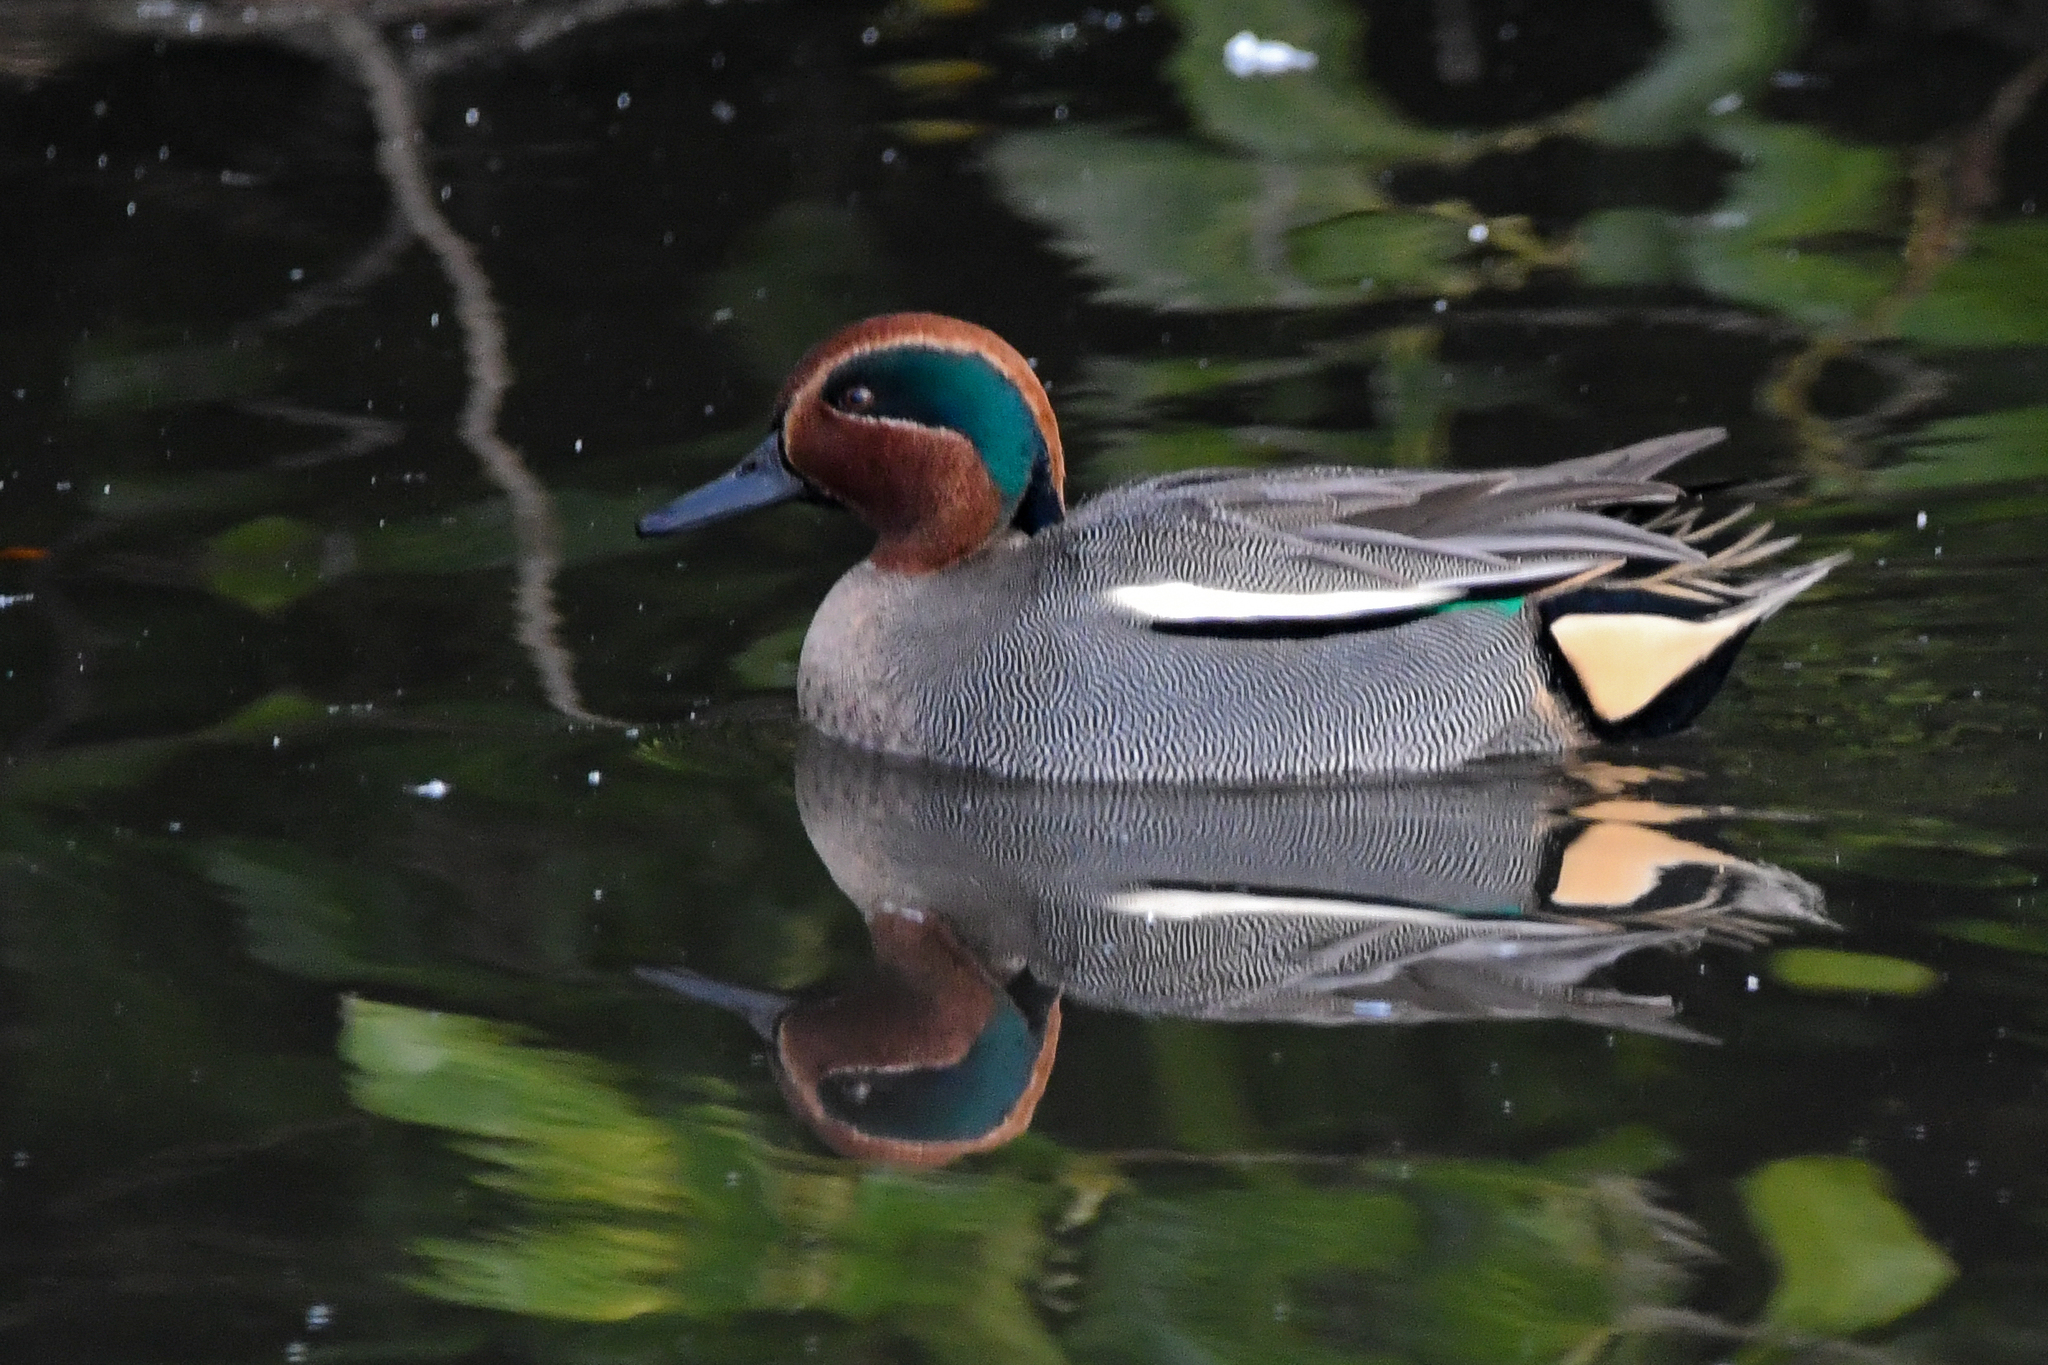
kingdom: Animalia
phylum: Chordata
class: Aves
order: Anseriformes
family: Anatidae
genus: Anas
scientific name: Anas crecca
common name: Eurasian teal
